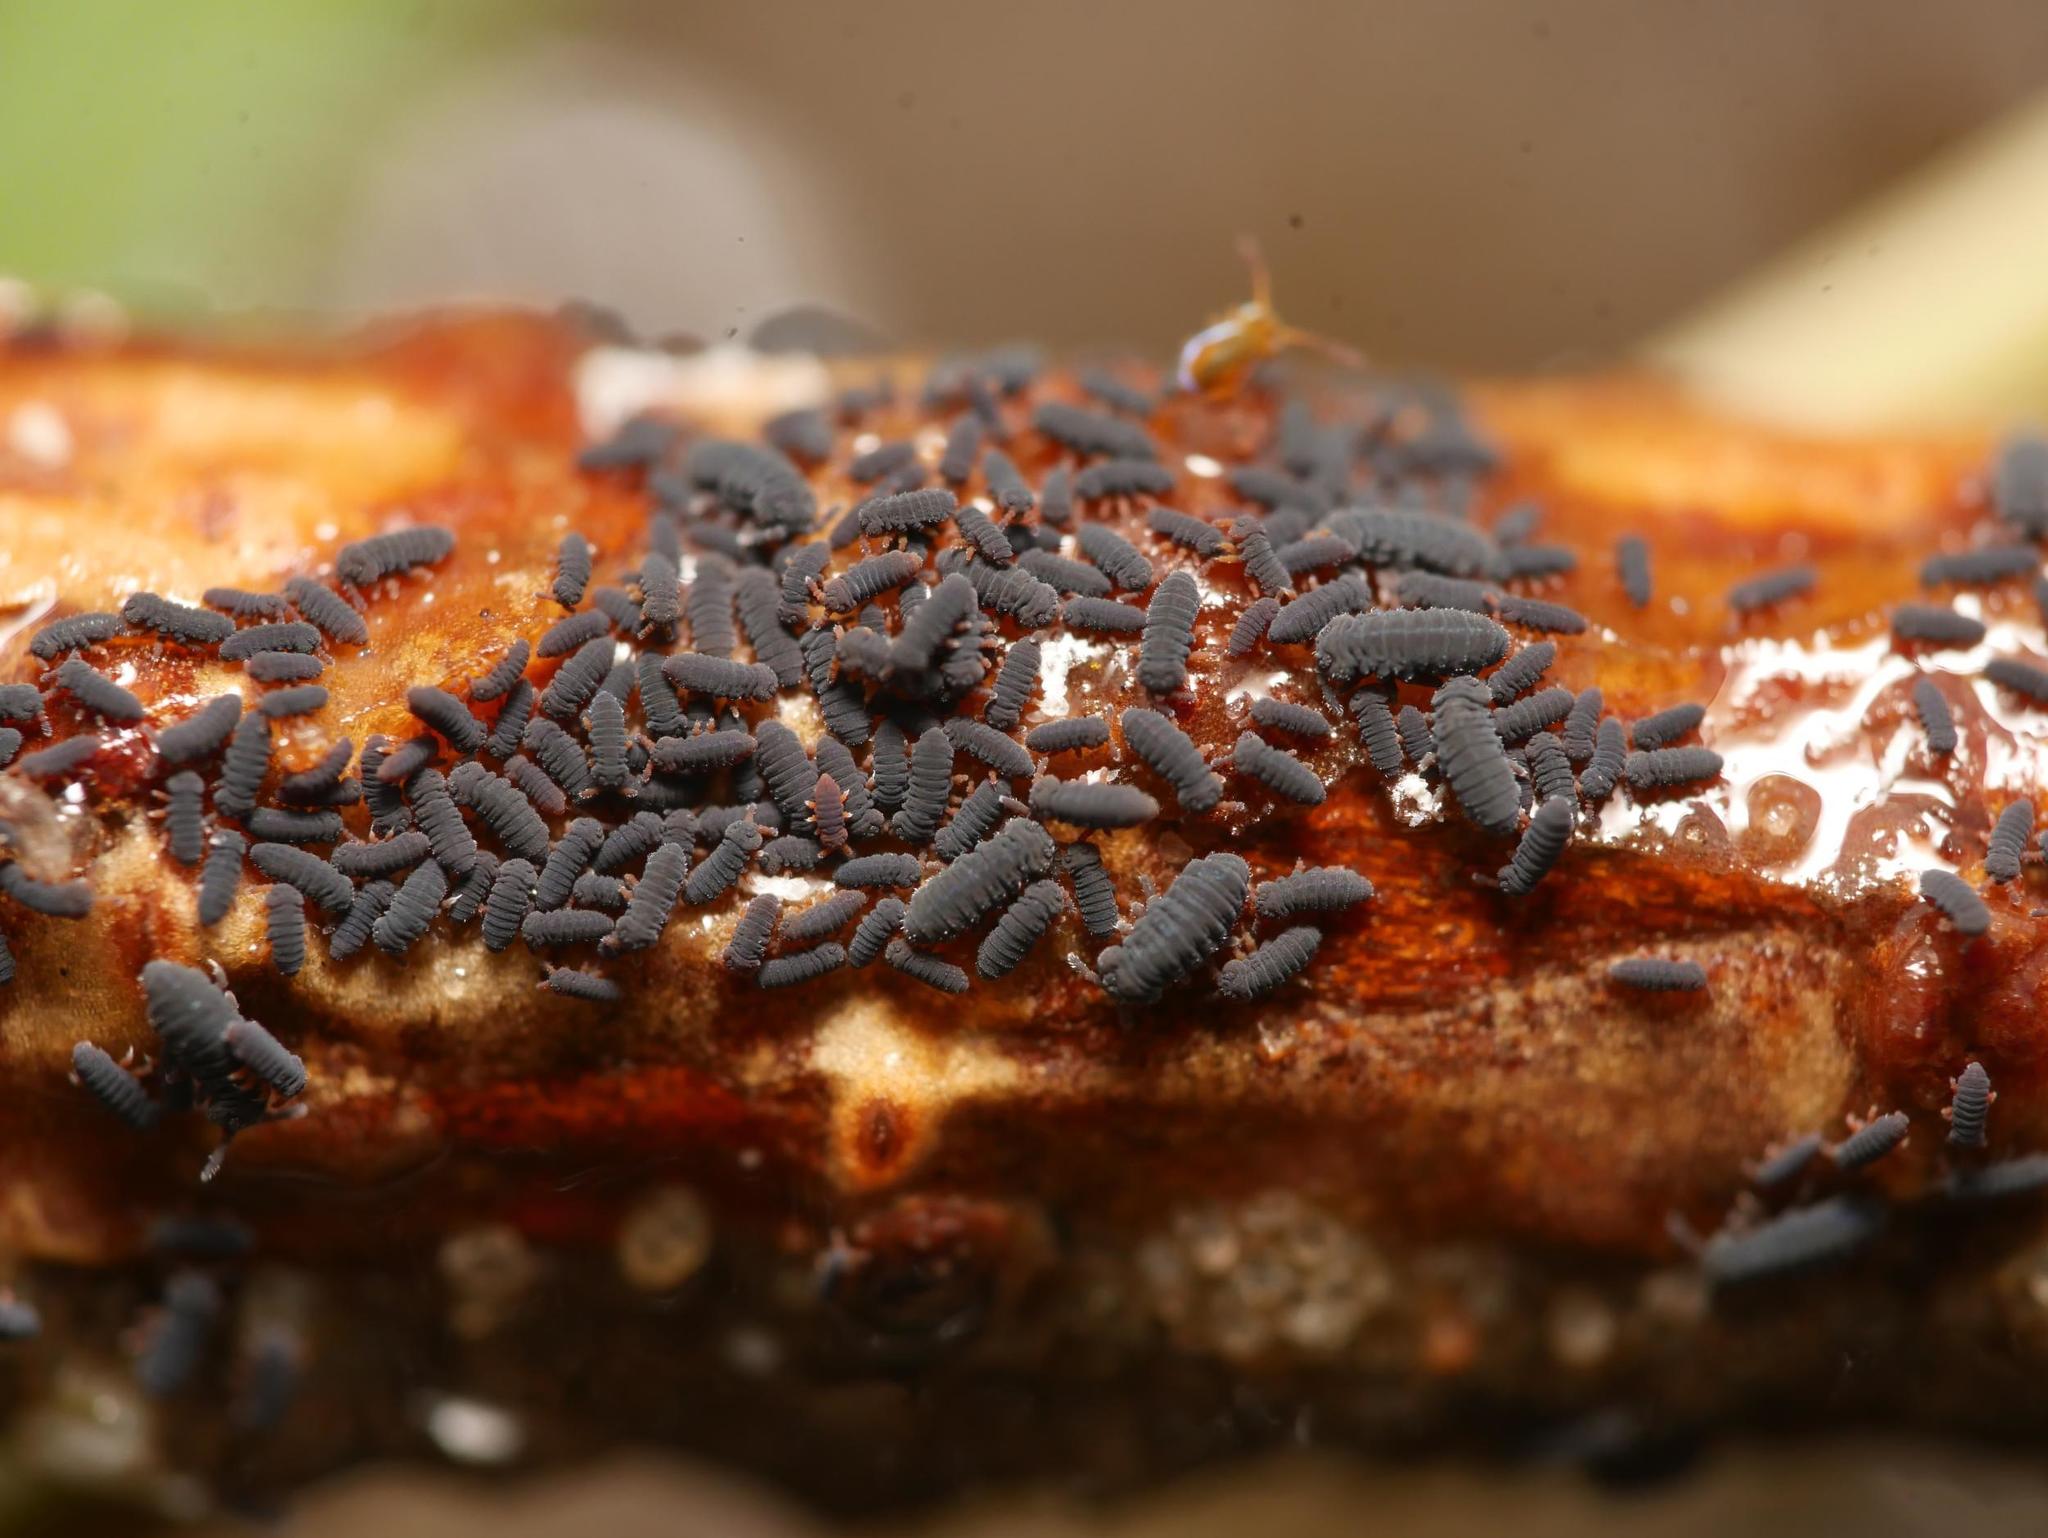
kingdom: Animalia
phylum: Arthropoda
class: Collembola
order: Poduromorpha
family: Poduridae
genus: Podura
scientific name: Podura aquatica
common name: Water springtail
